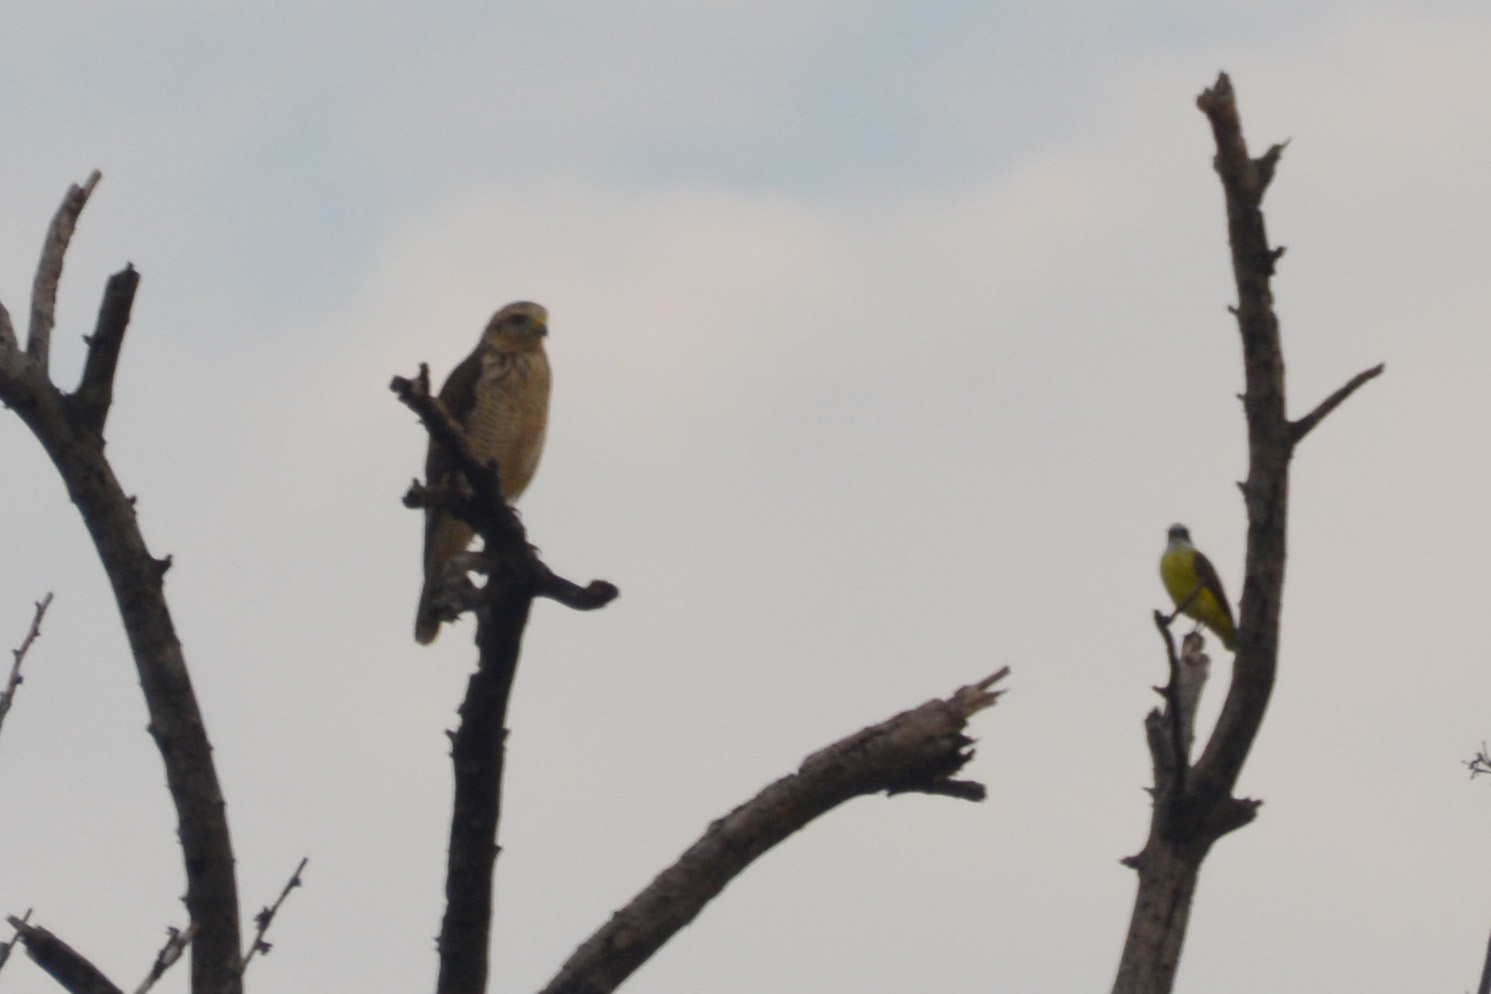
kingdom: Animalia
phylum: Chordata
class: Aves
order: Accipitriformes
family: Accipitridae
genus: Rupornis
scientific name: Rupornis magnirostris
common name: Roadside hawk
